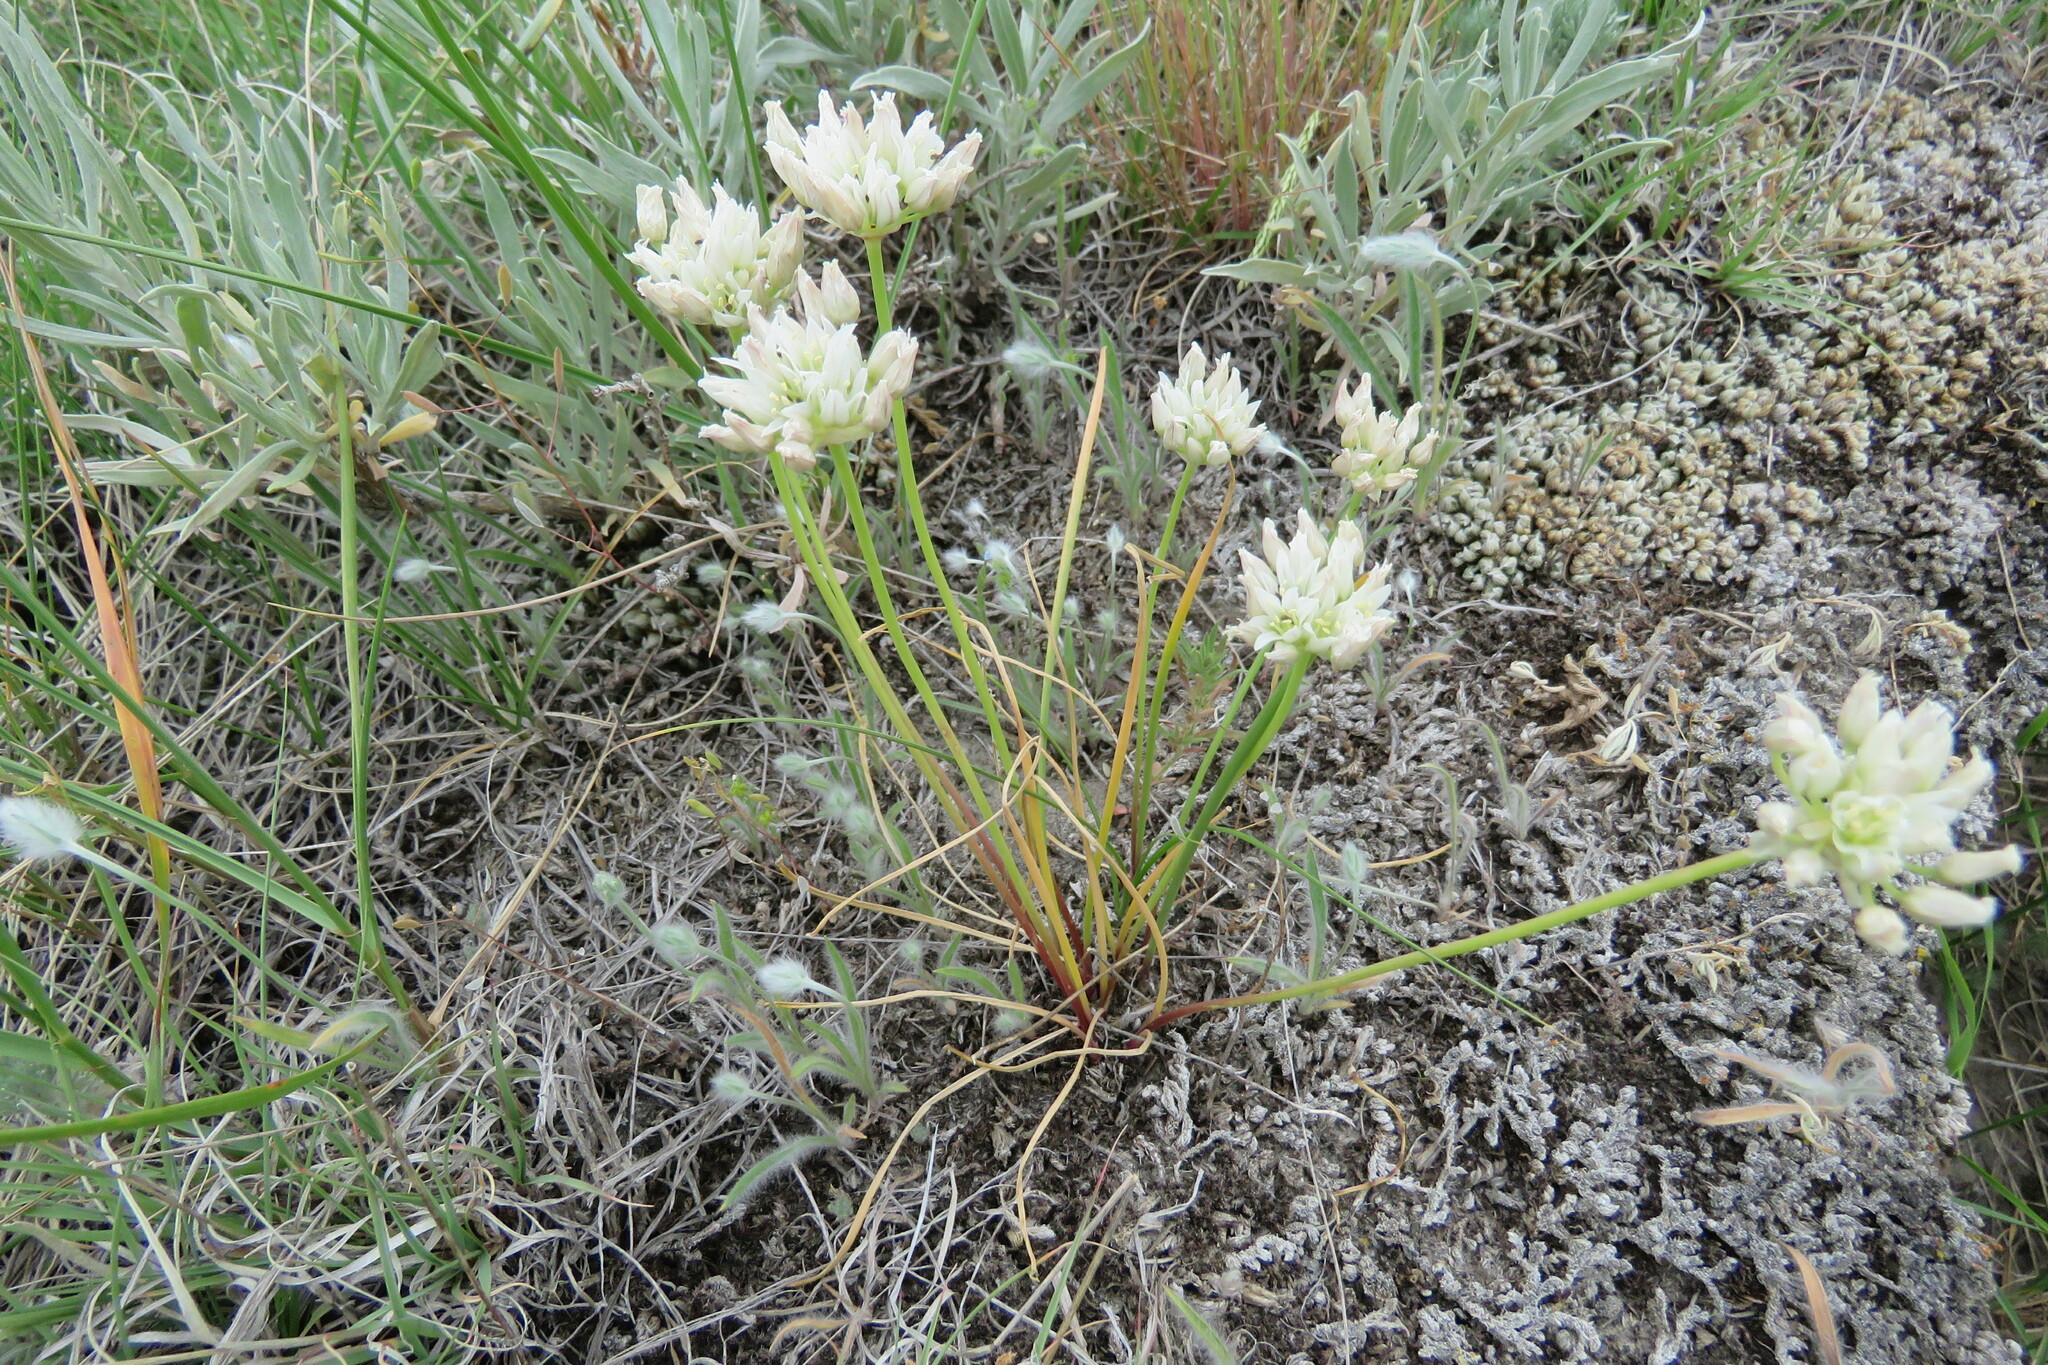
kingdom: Plantae
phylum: Tracheophyta
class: Liliopsida
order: Asparagales
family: Amaryllidaceae
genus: Allium
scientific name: Allium textile
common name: Prairie onion
